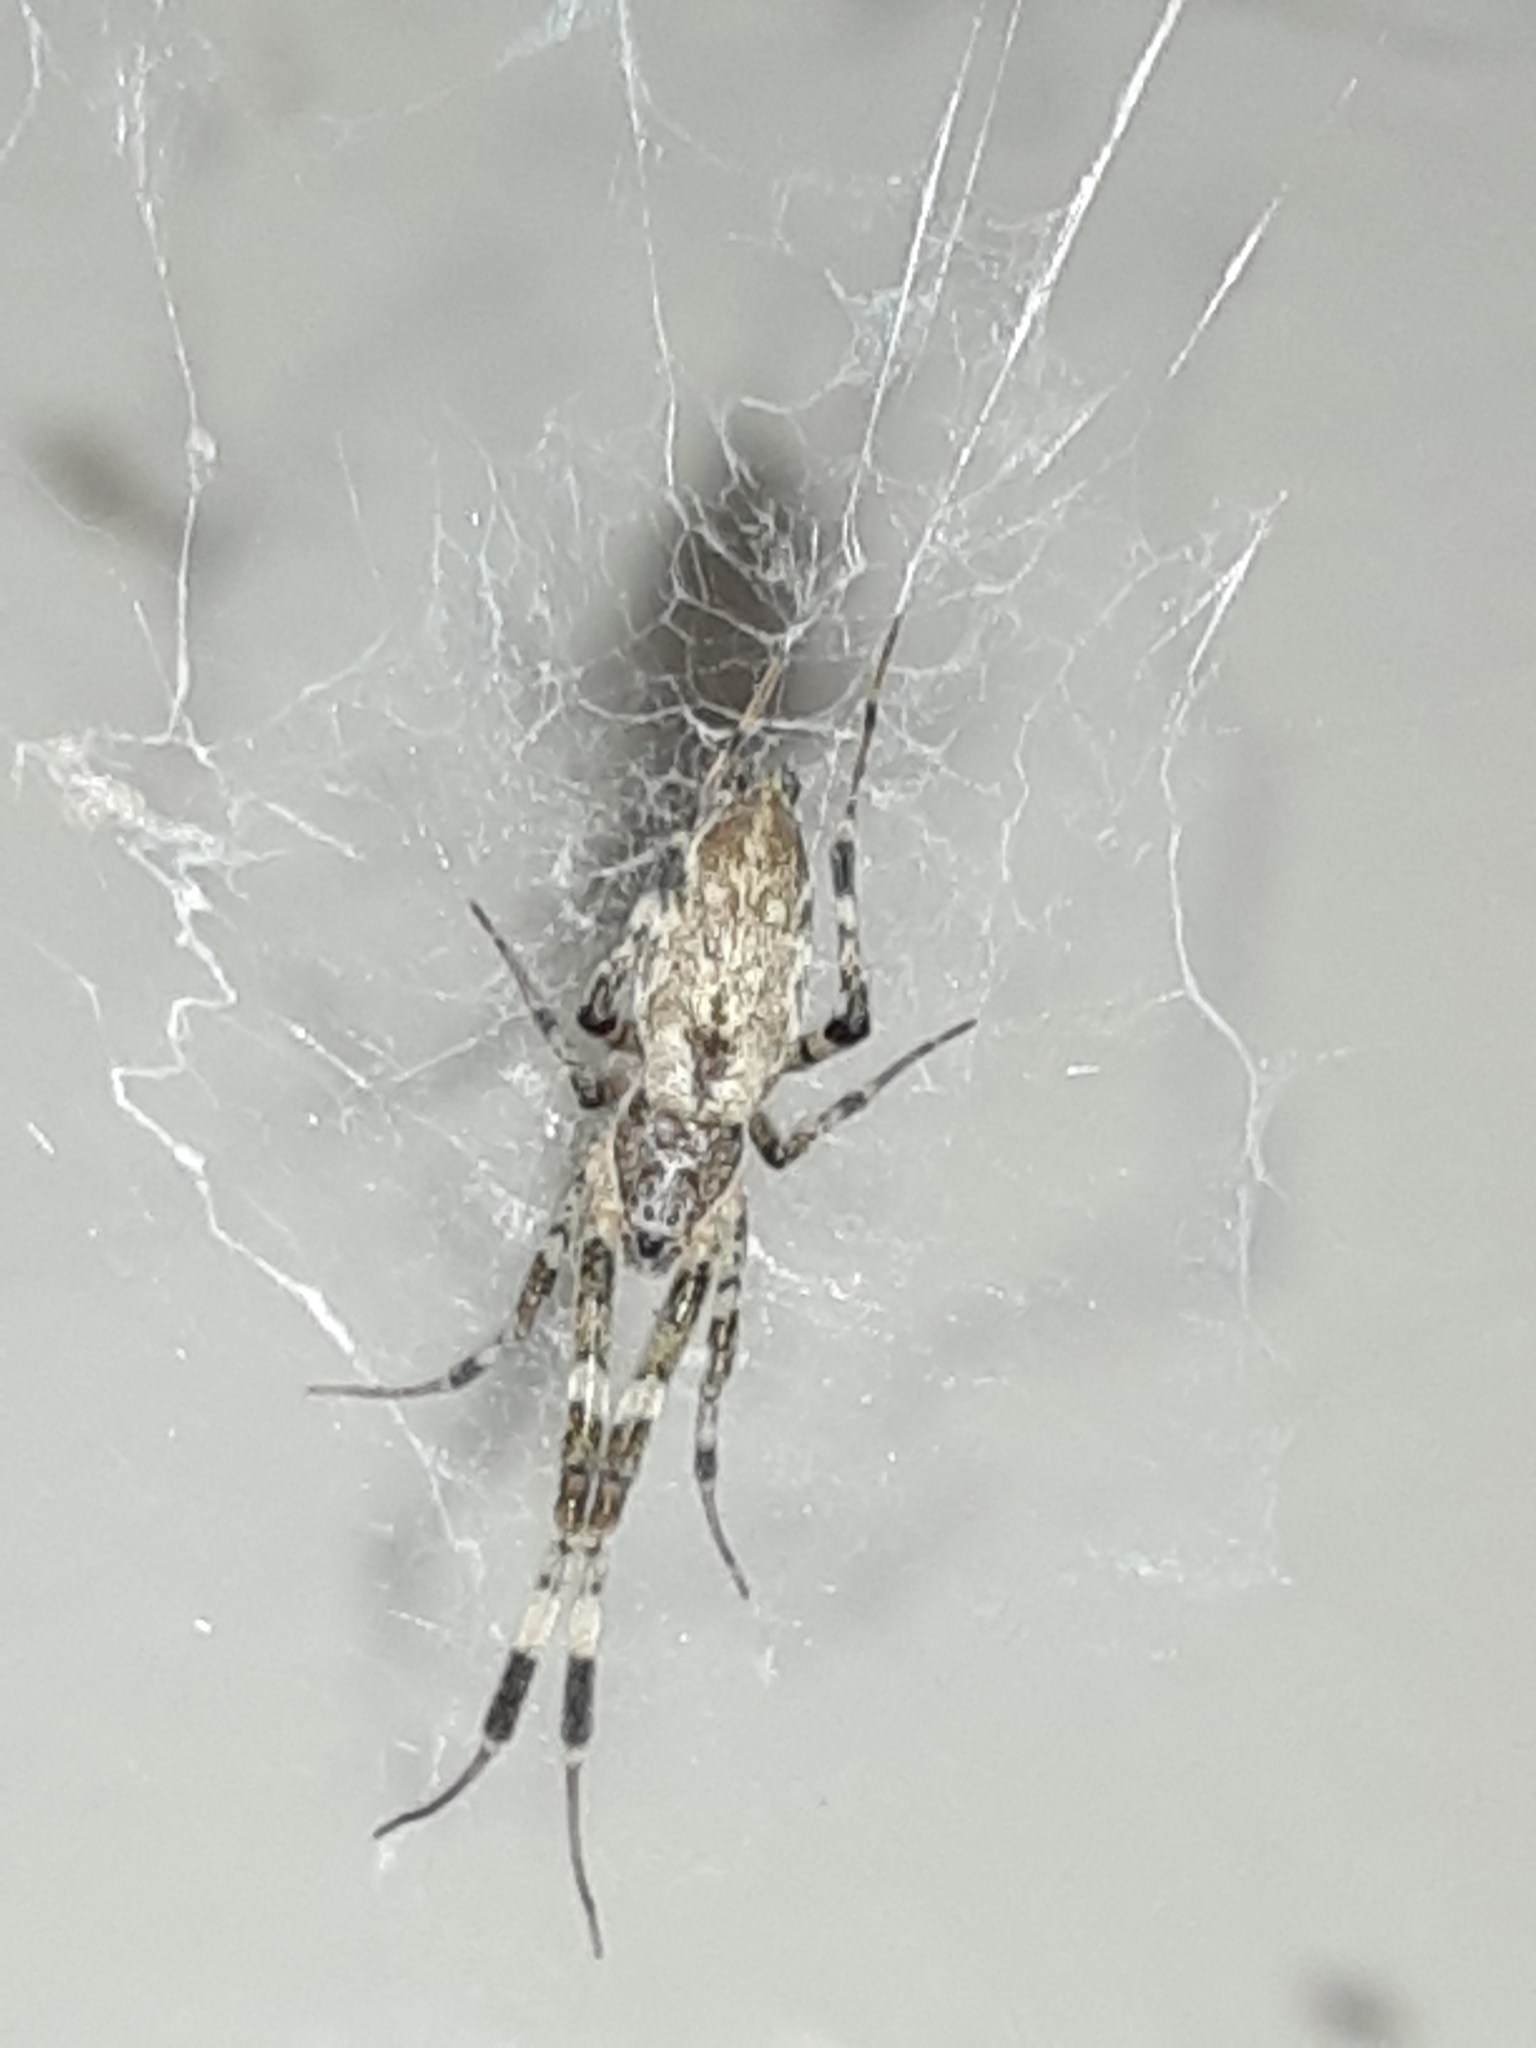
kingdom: Animalia
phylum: Arthropoda
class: Arachnida
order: Araneae
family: Uloboridae
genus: Zosis
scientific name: Zosis geniculata
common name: Hackled orb weavers
